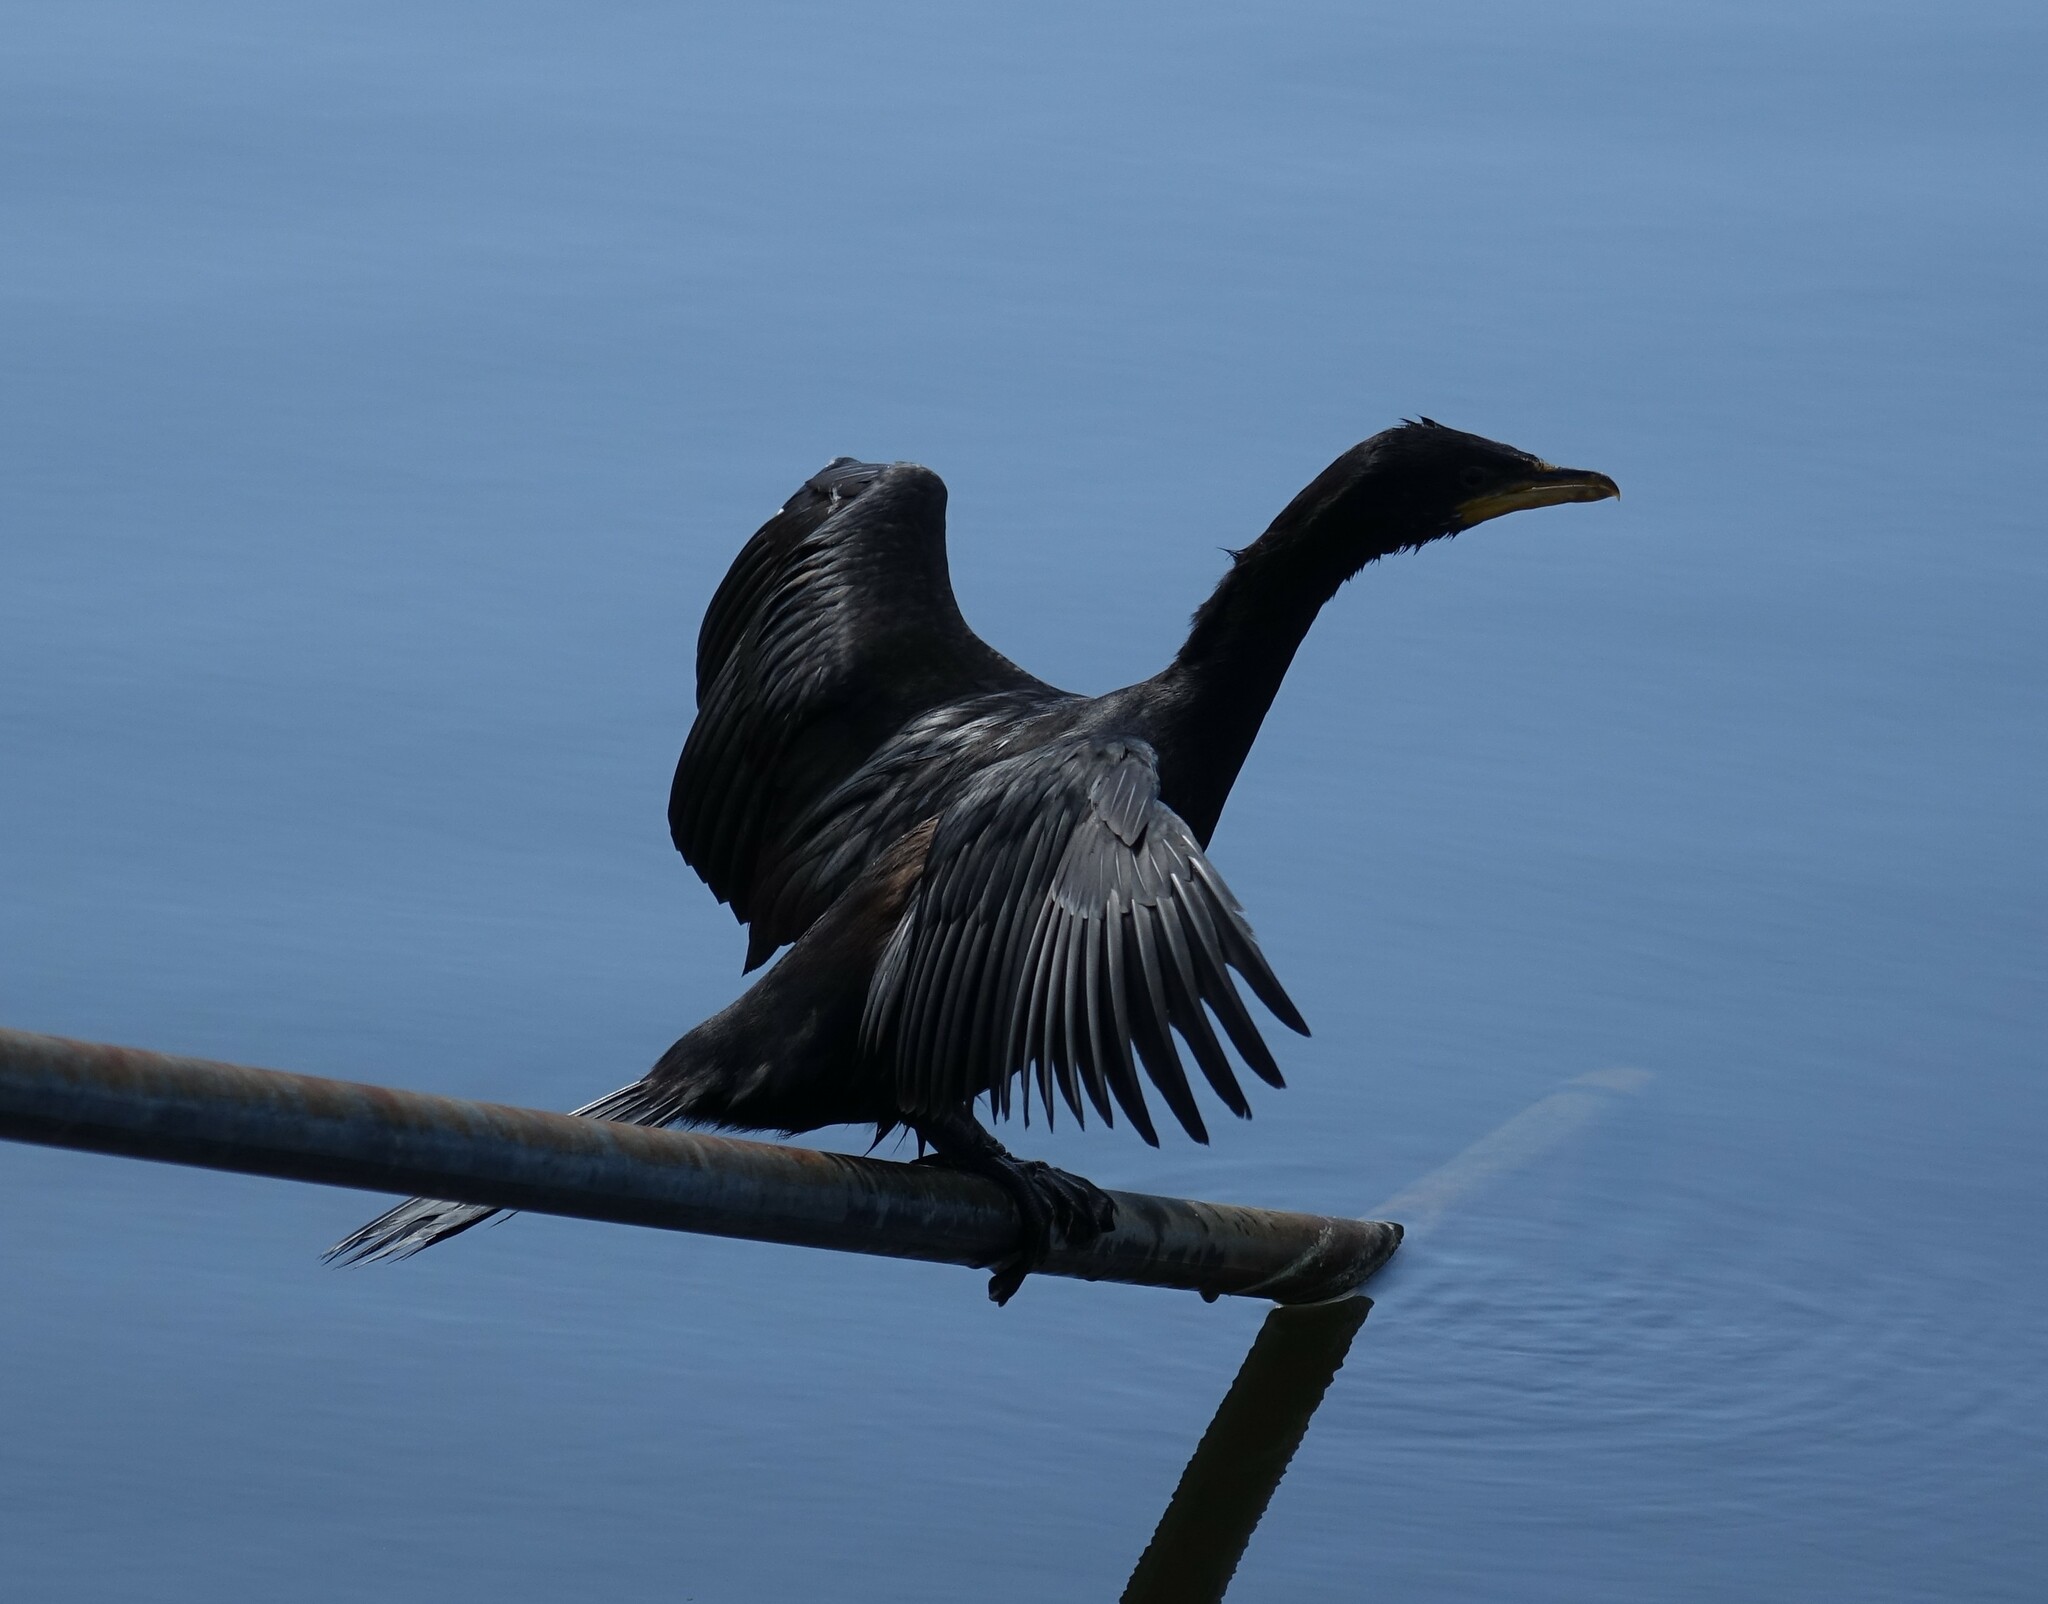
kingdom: Animalia
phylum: Chordata
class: Aves
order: Suliformes
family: Phalacrocoracidae
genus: Microcarbo
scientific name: Microcarbo melanoleucos
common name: Little pied cormorant
